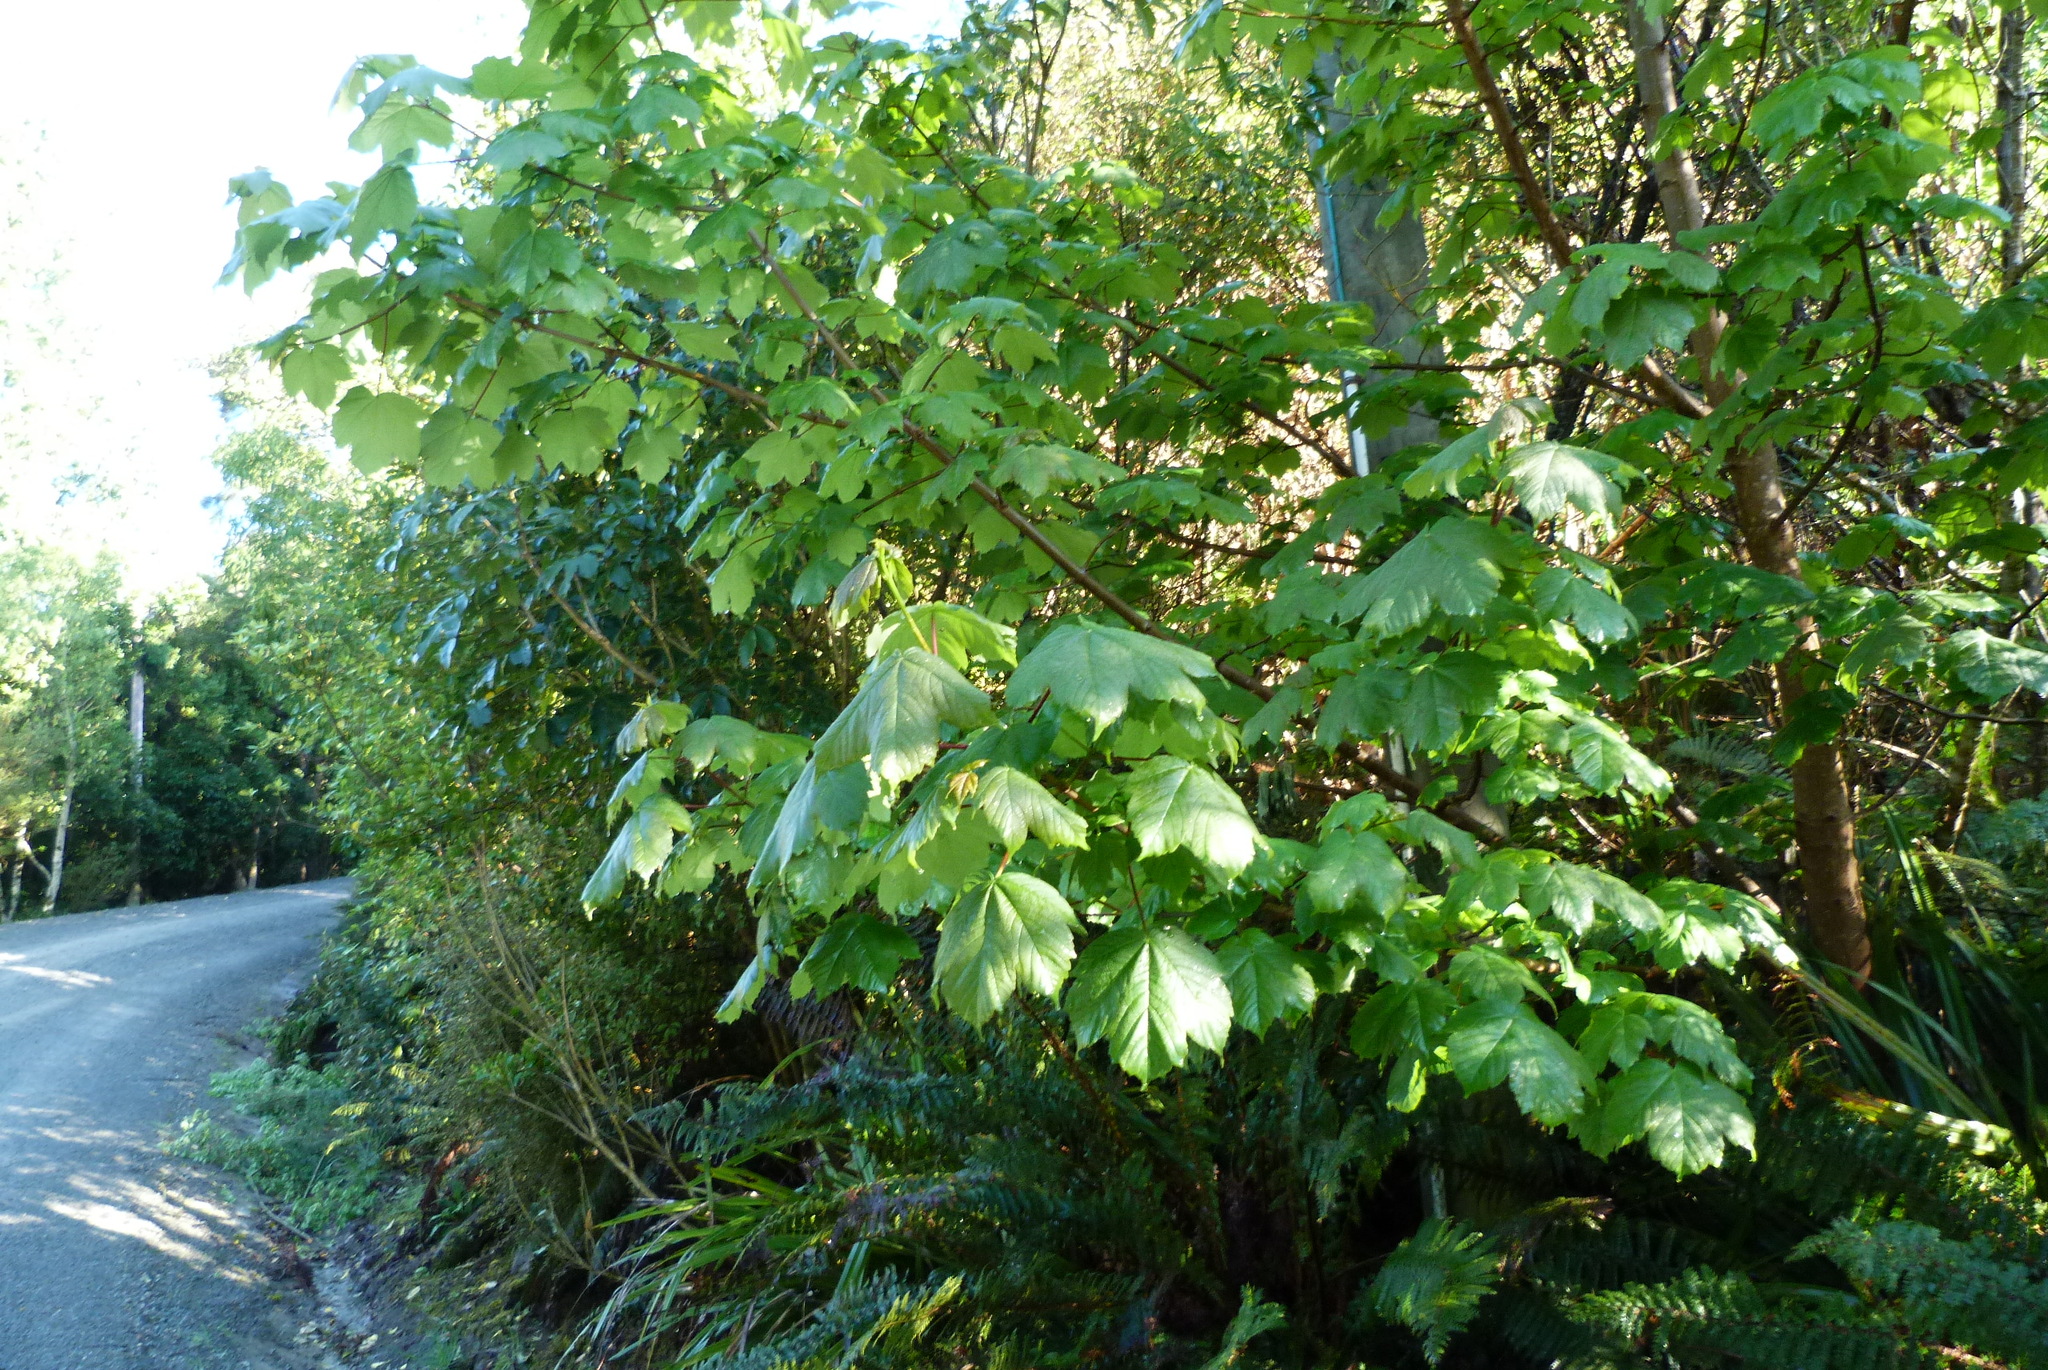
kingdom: Plantae
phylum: Tracheophyta
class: Magnoliopsida
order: Sapindales
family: Sapindaceae
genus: Acer
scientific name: Acer pseudoplatanus
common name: Sycamore
